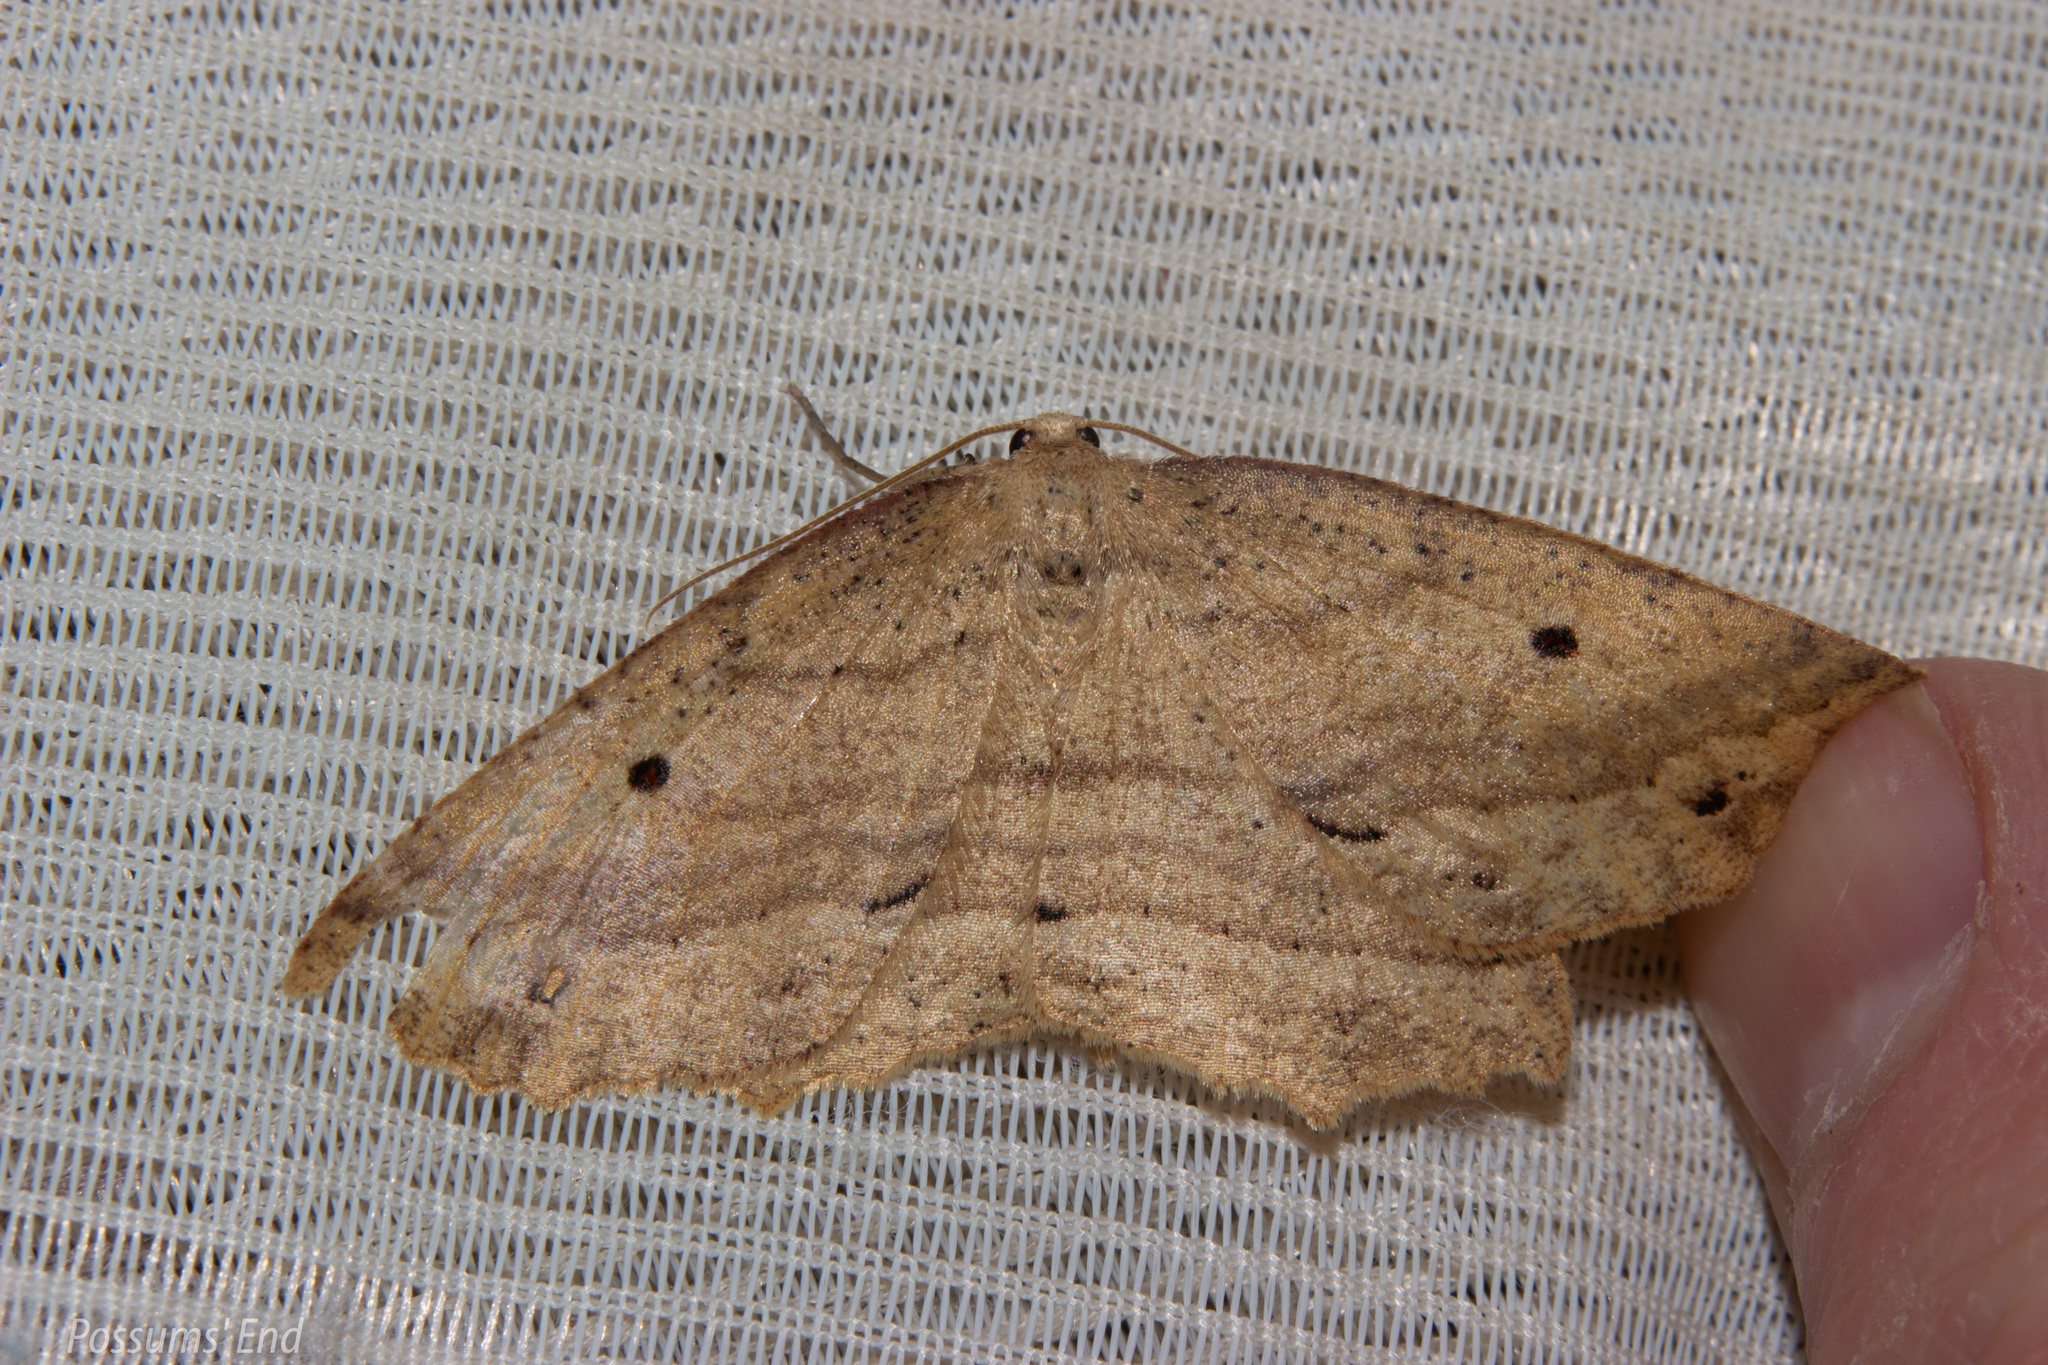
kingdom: Animalia
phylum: Arthropoda
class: Insecta
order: Lepidoptera
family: Geometridae
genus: Xyridacma
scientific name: Xyridacma veronicae
